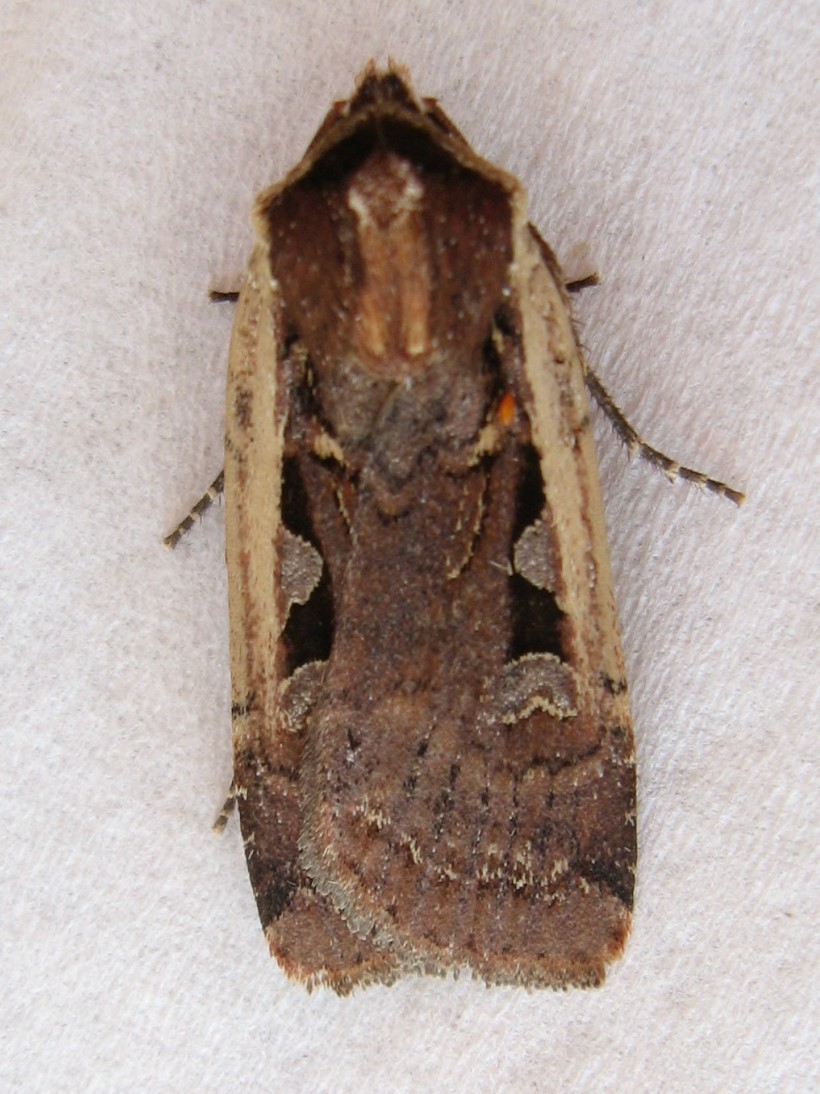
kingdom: Animalia
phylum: Arthropoda
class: Insecta
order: Lepidoptera
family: Noctuidae
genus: Parabagrotis
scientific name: Parabagrotis exsertistigma
